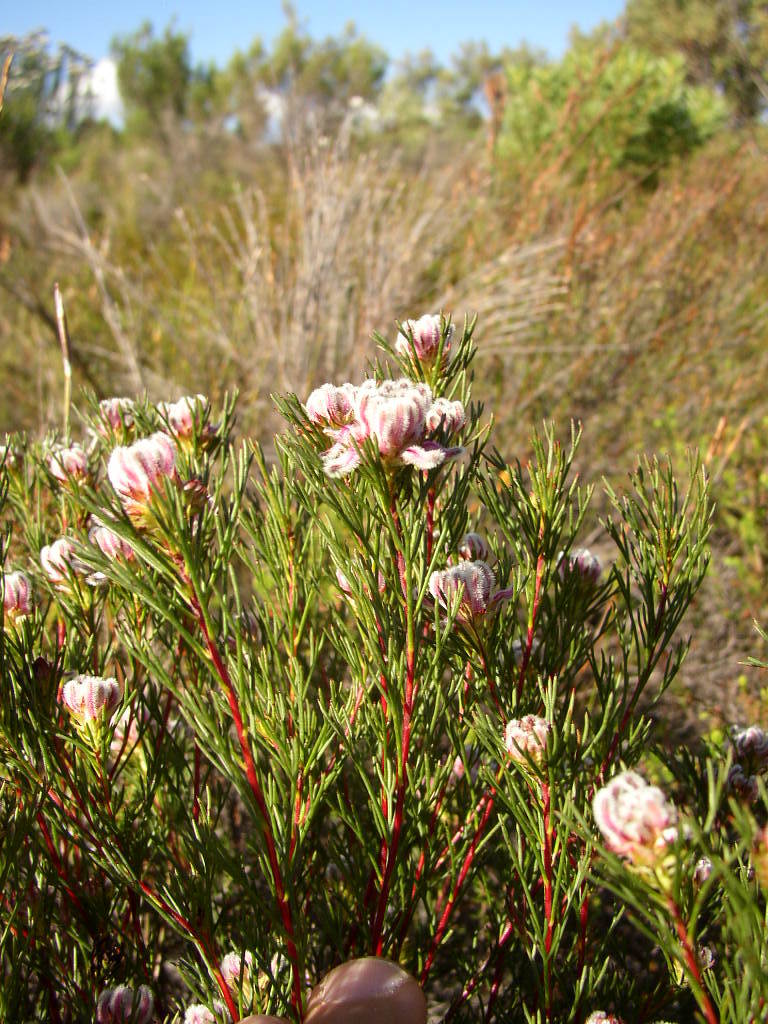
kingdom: Plantae
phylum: Tracheophyta
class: Magnoliopsida
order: Proteales
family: Proteaceae
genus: Serruria
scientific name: Serruria nervosa
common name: Fluted spiderhead
